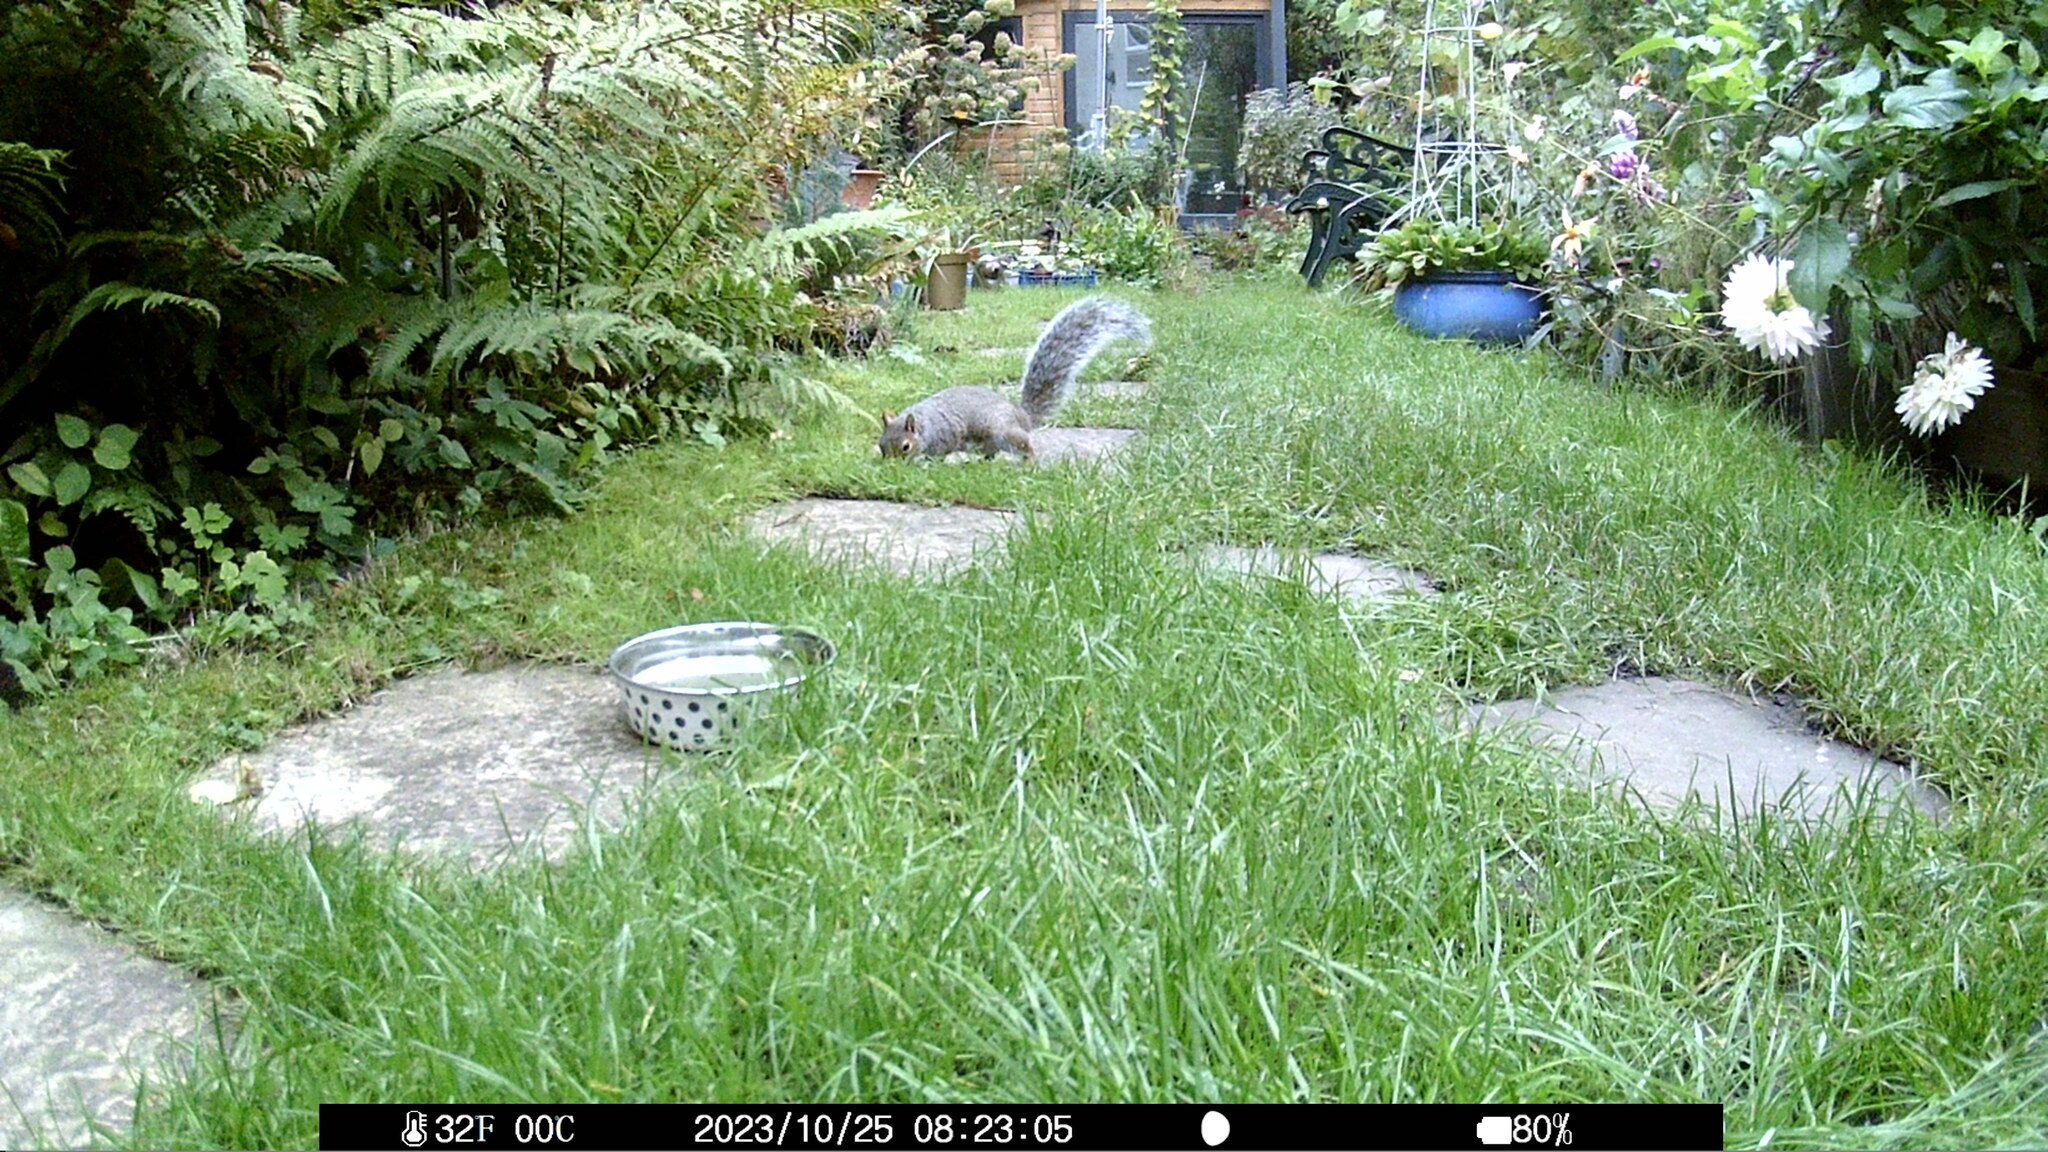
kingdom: Animalia
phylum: Chordata
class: Mammalia
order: Rodentia
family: Sciuridae
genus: Sciurus
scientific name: Sciurus carolinensis
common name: Eastern gray squirrel
